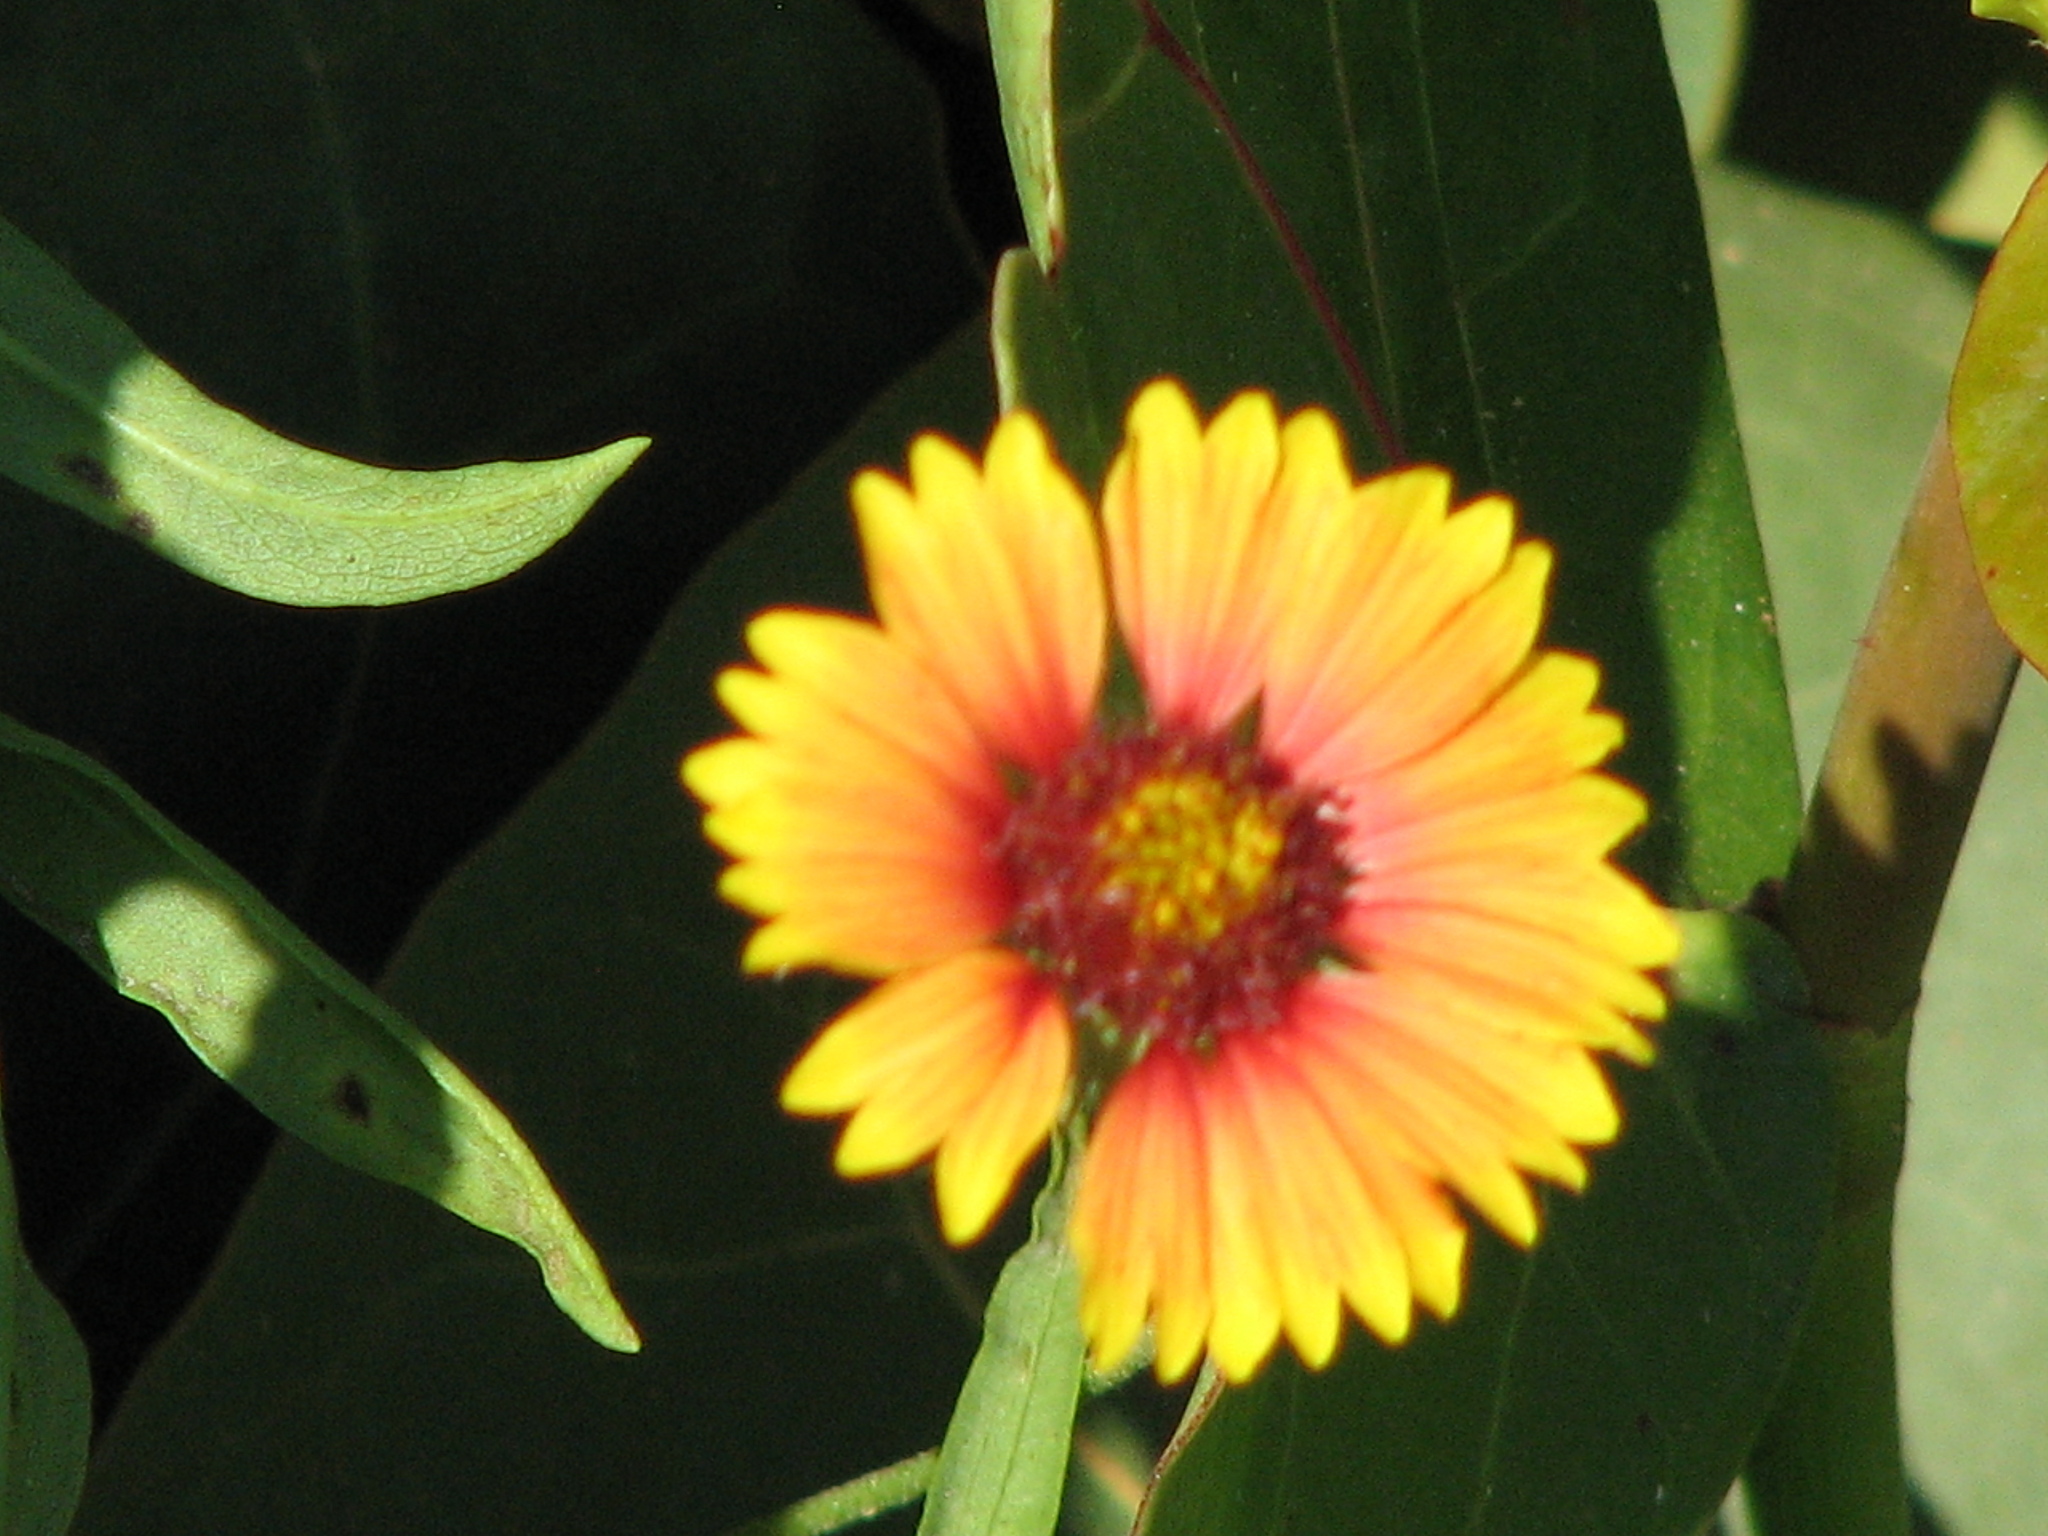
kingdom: Plantae
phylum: Tracheophyta
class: Magnoliopsida
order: Asterales
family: Asteraceae
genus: Gaillardia
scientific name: Gaillardia pulchella
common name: Firewheel
